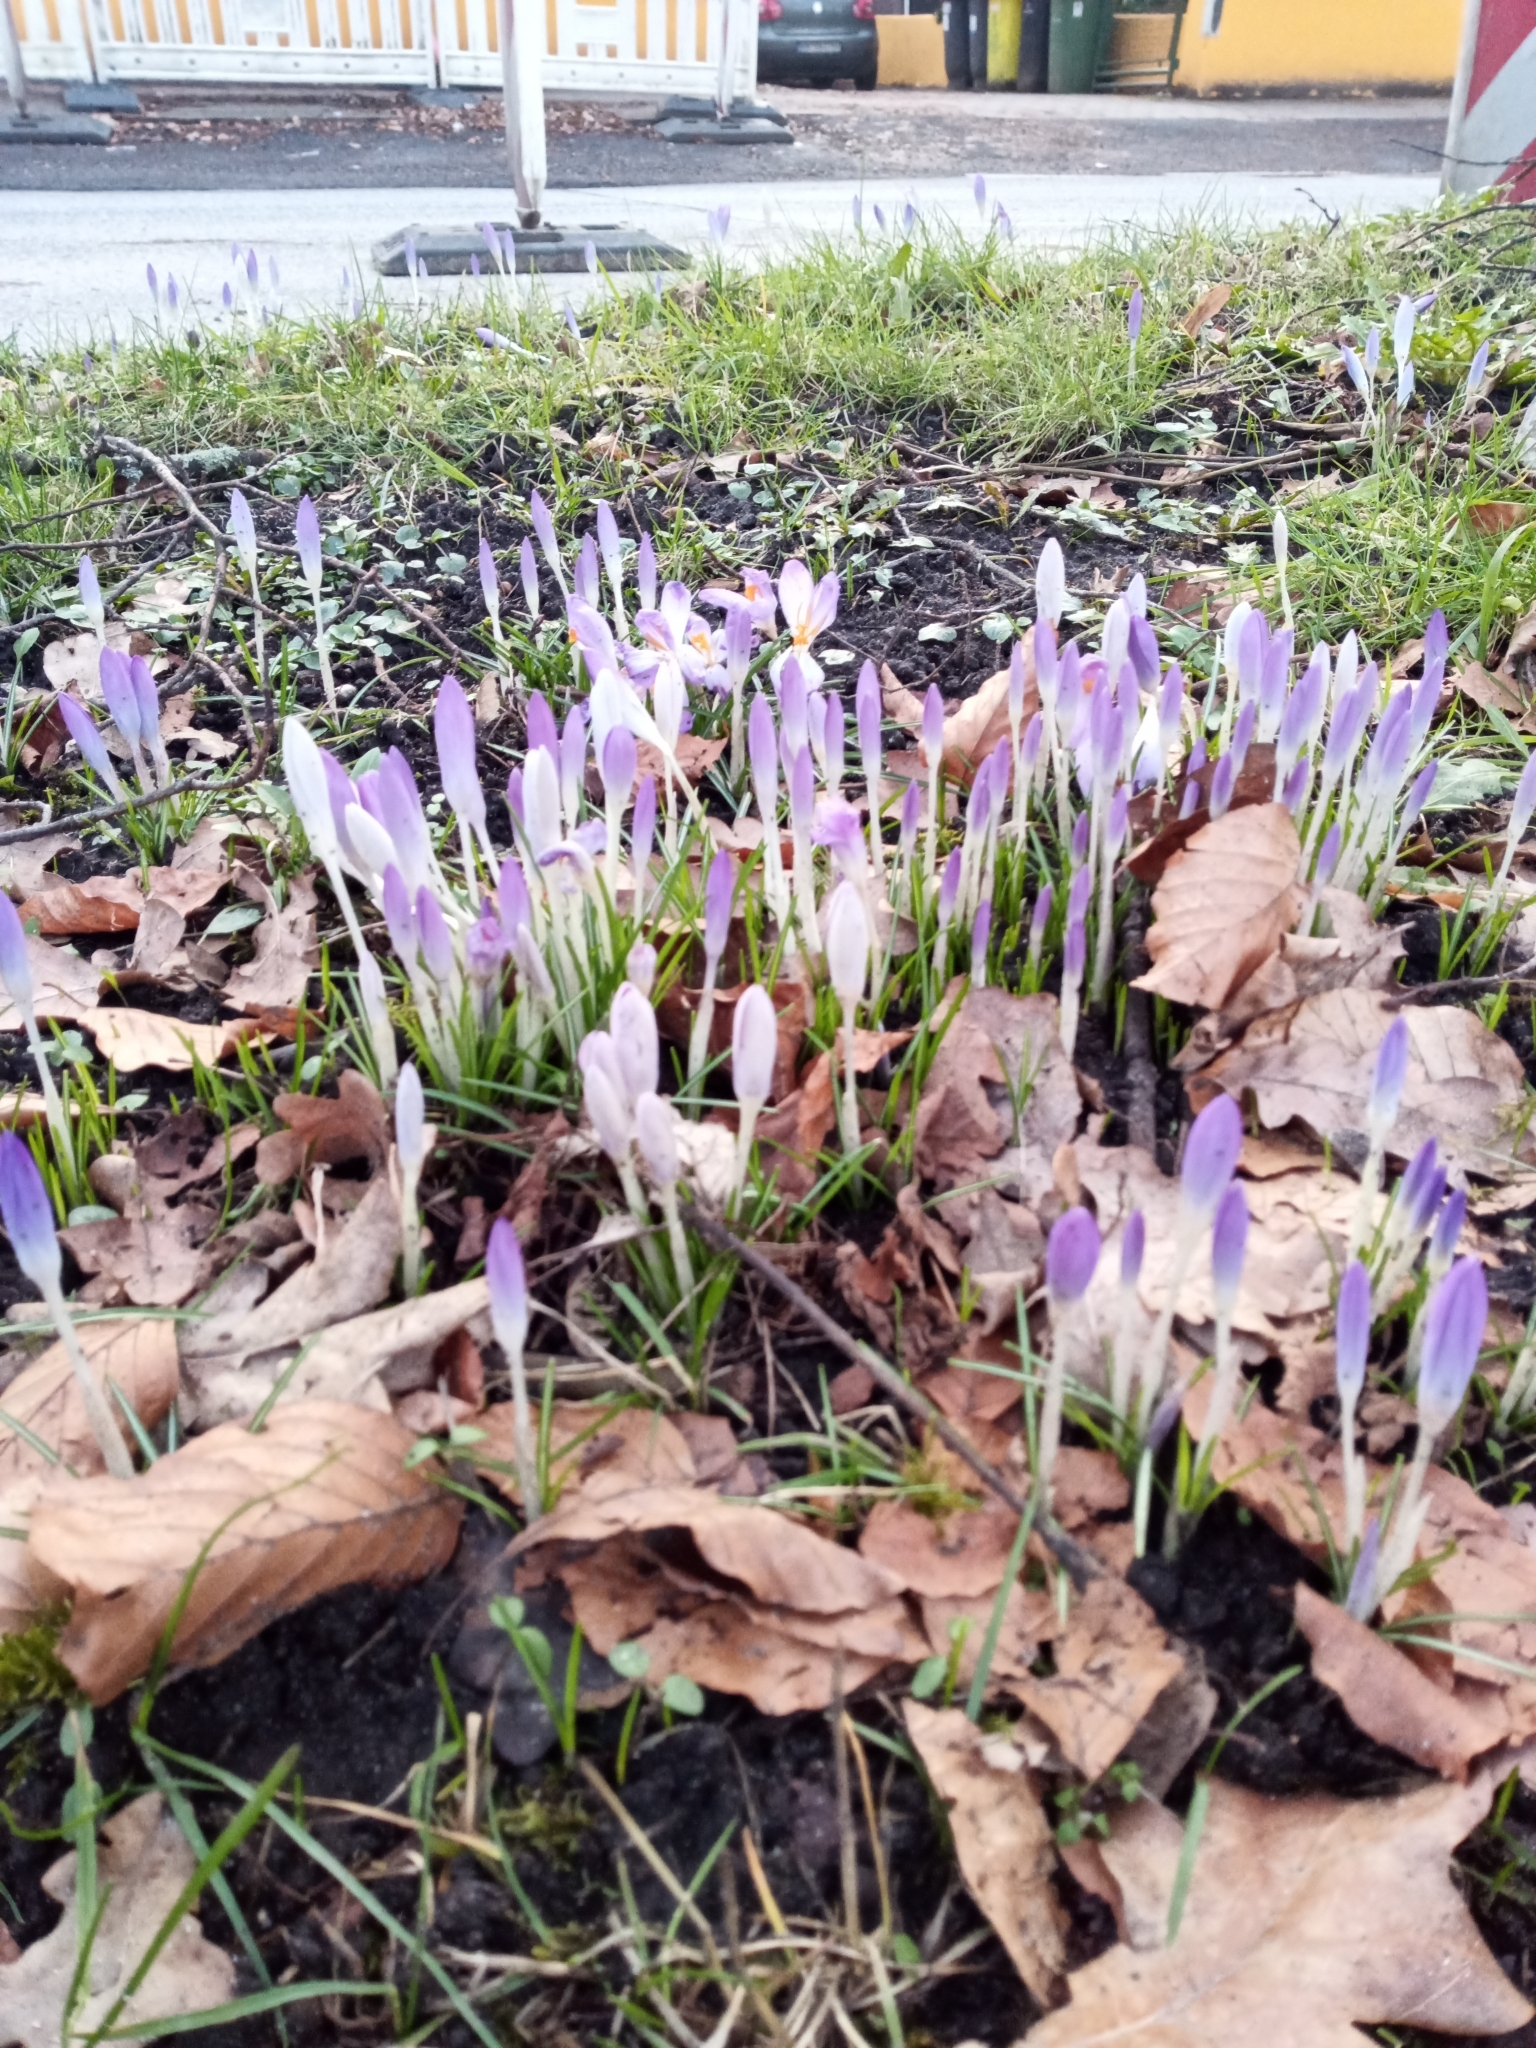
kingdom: Plantae
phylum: Tracheophyta
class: Liliopsida
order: Asparagales
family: Iridaceae
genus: Crocus
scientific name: Crocus tommasinianus
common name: Early crocus
